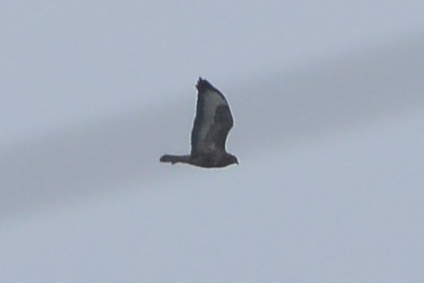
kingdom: Animalia
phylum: Chordata
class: Aves
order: Accipitriformes
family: Accipitridae
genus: Buteo
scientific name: Buteo buteo
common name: Common buzzard
